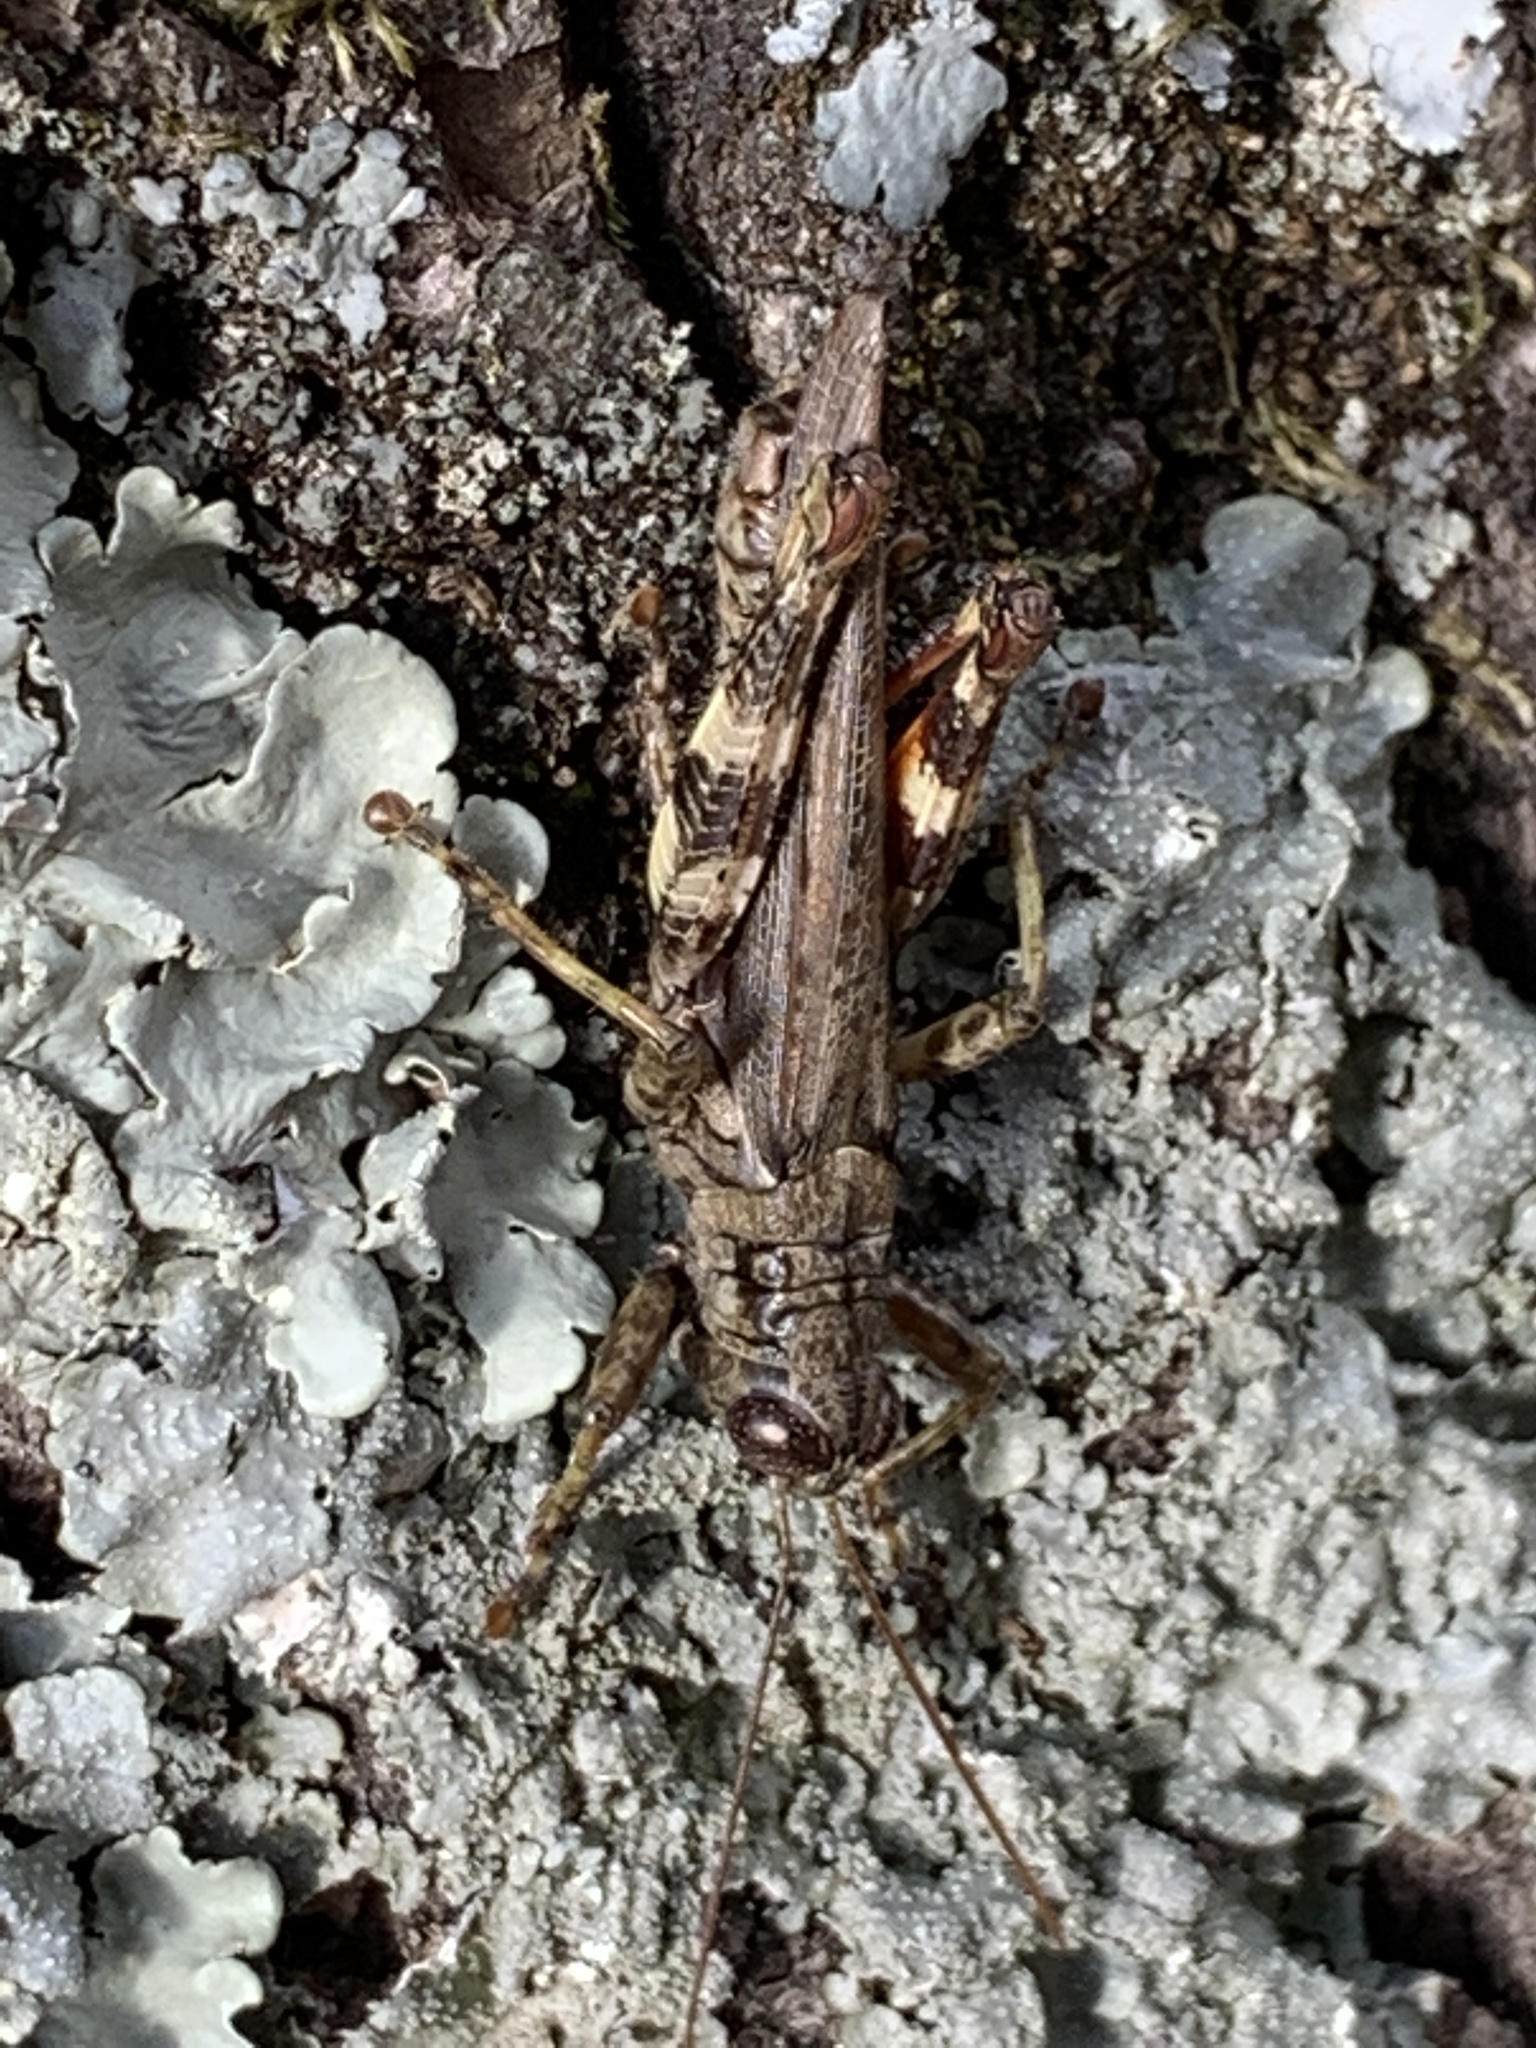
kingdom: Animalia
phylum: Arthropoda
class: Insecta
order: Orthoptera
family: Acrididae
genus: Melanoplus
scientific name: Melanoplus punctulatus
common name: Pine-tree spur-throat grasshopper
